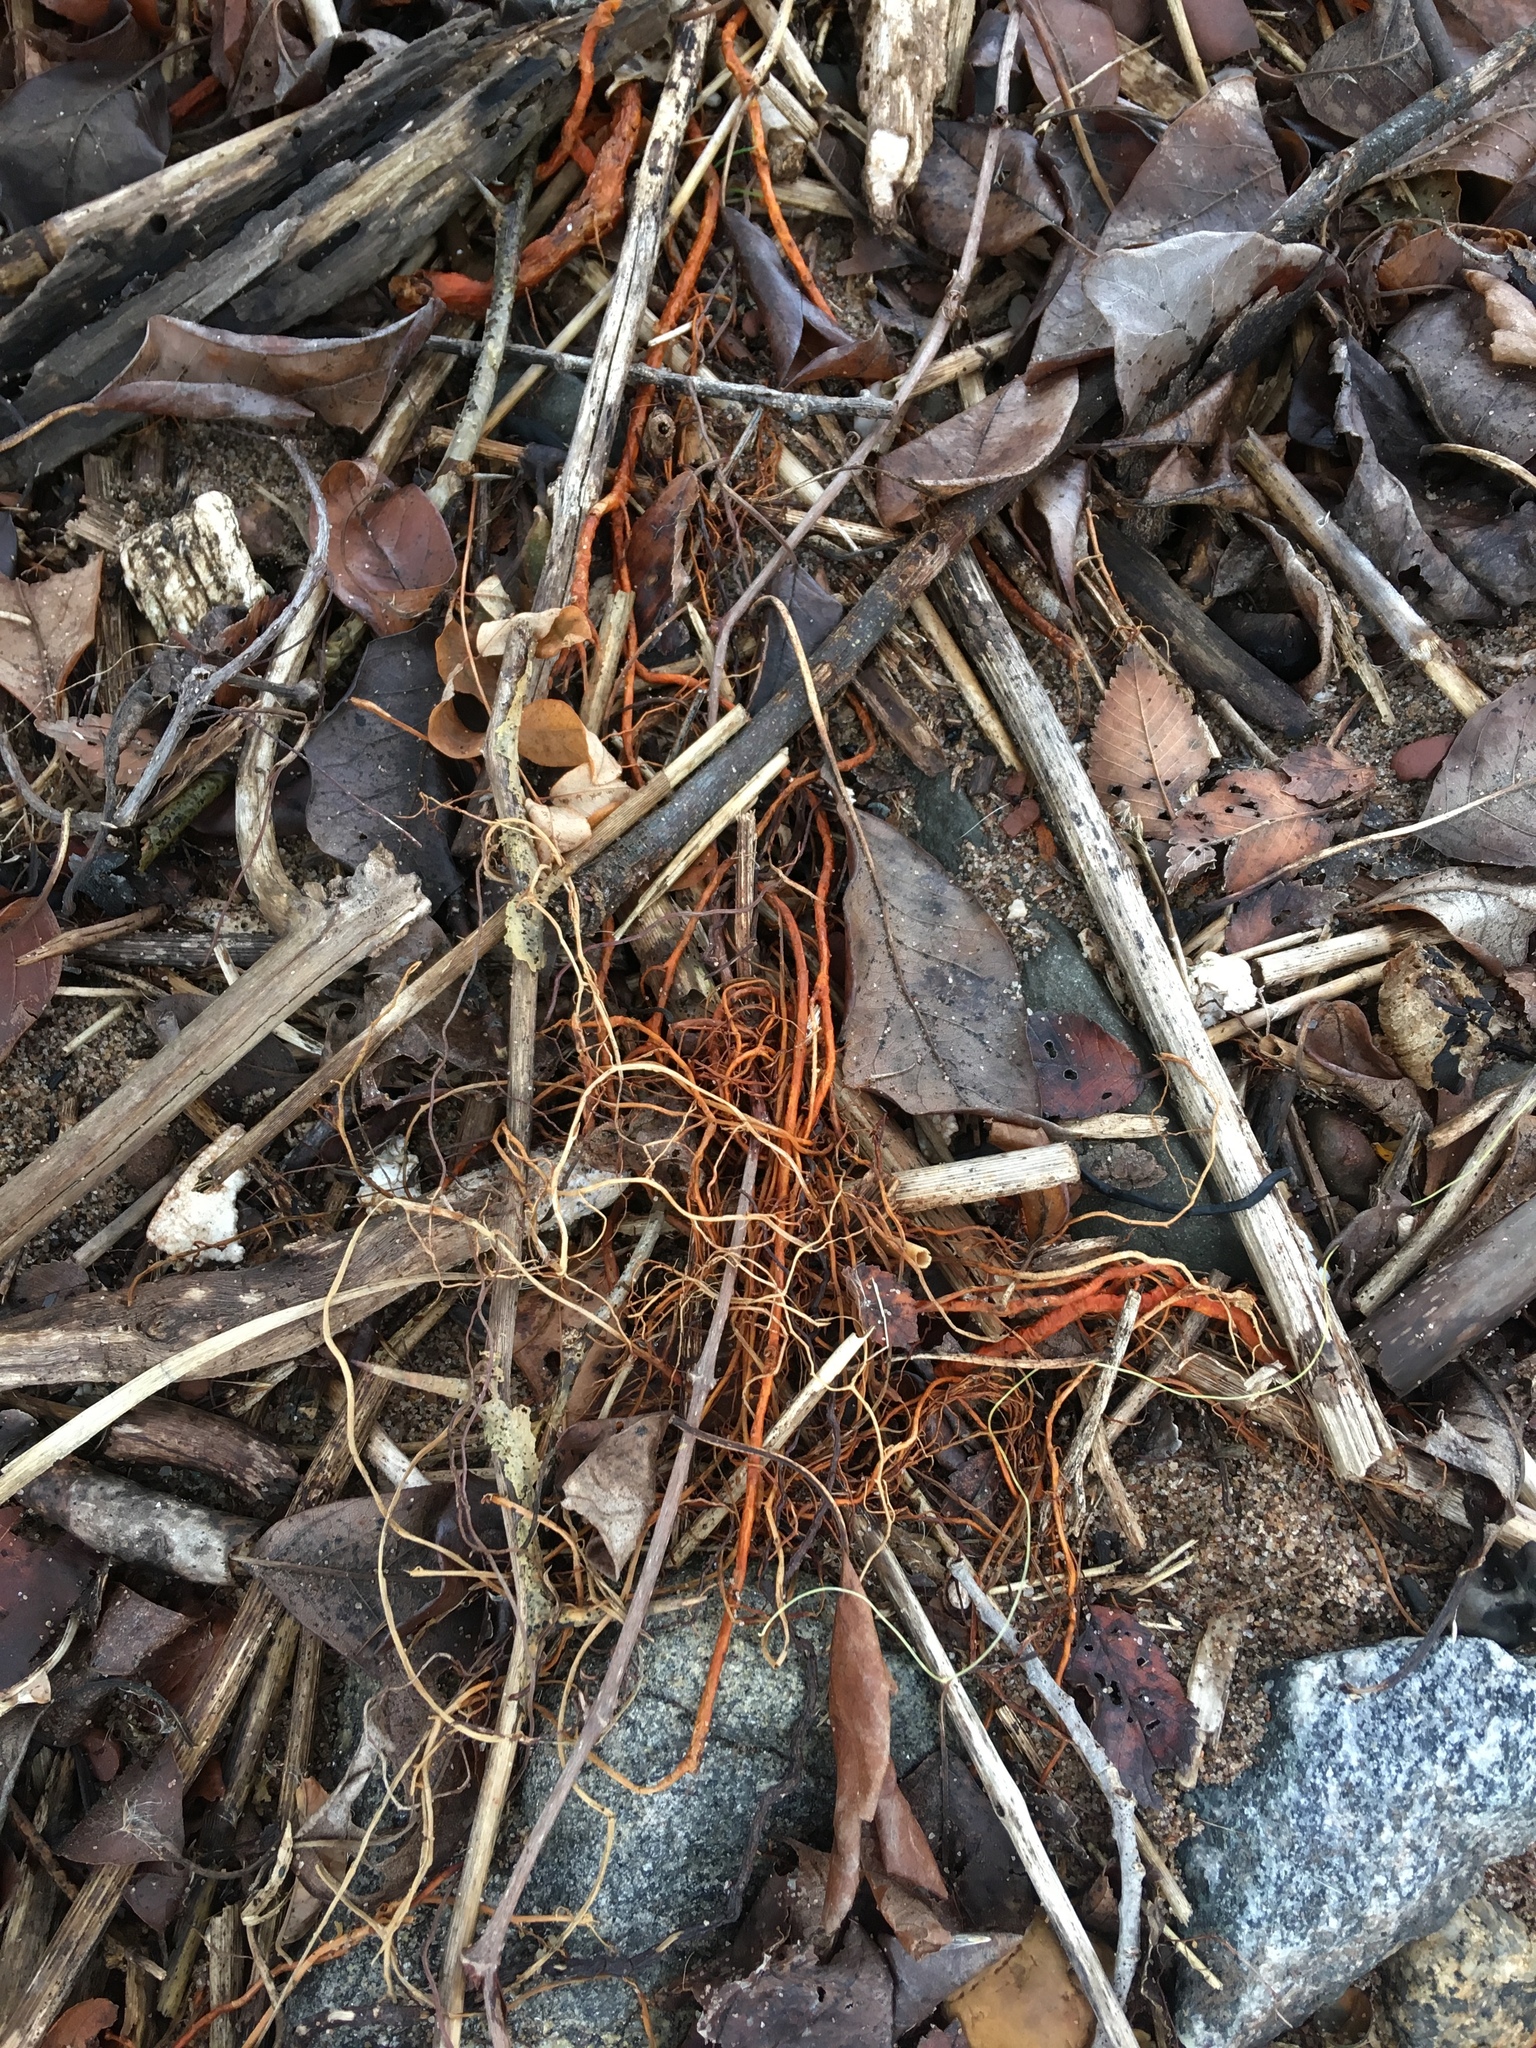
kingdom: Plantae
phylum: Tracheophyta
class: Magnoliopsida
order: Rosales
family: Moraceae
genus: Morus
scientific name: Morus alba
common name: White mulberry
